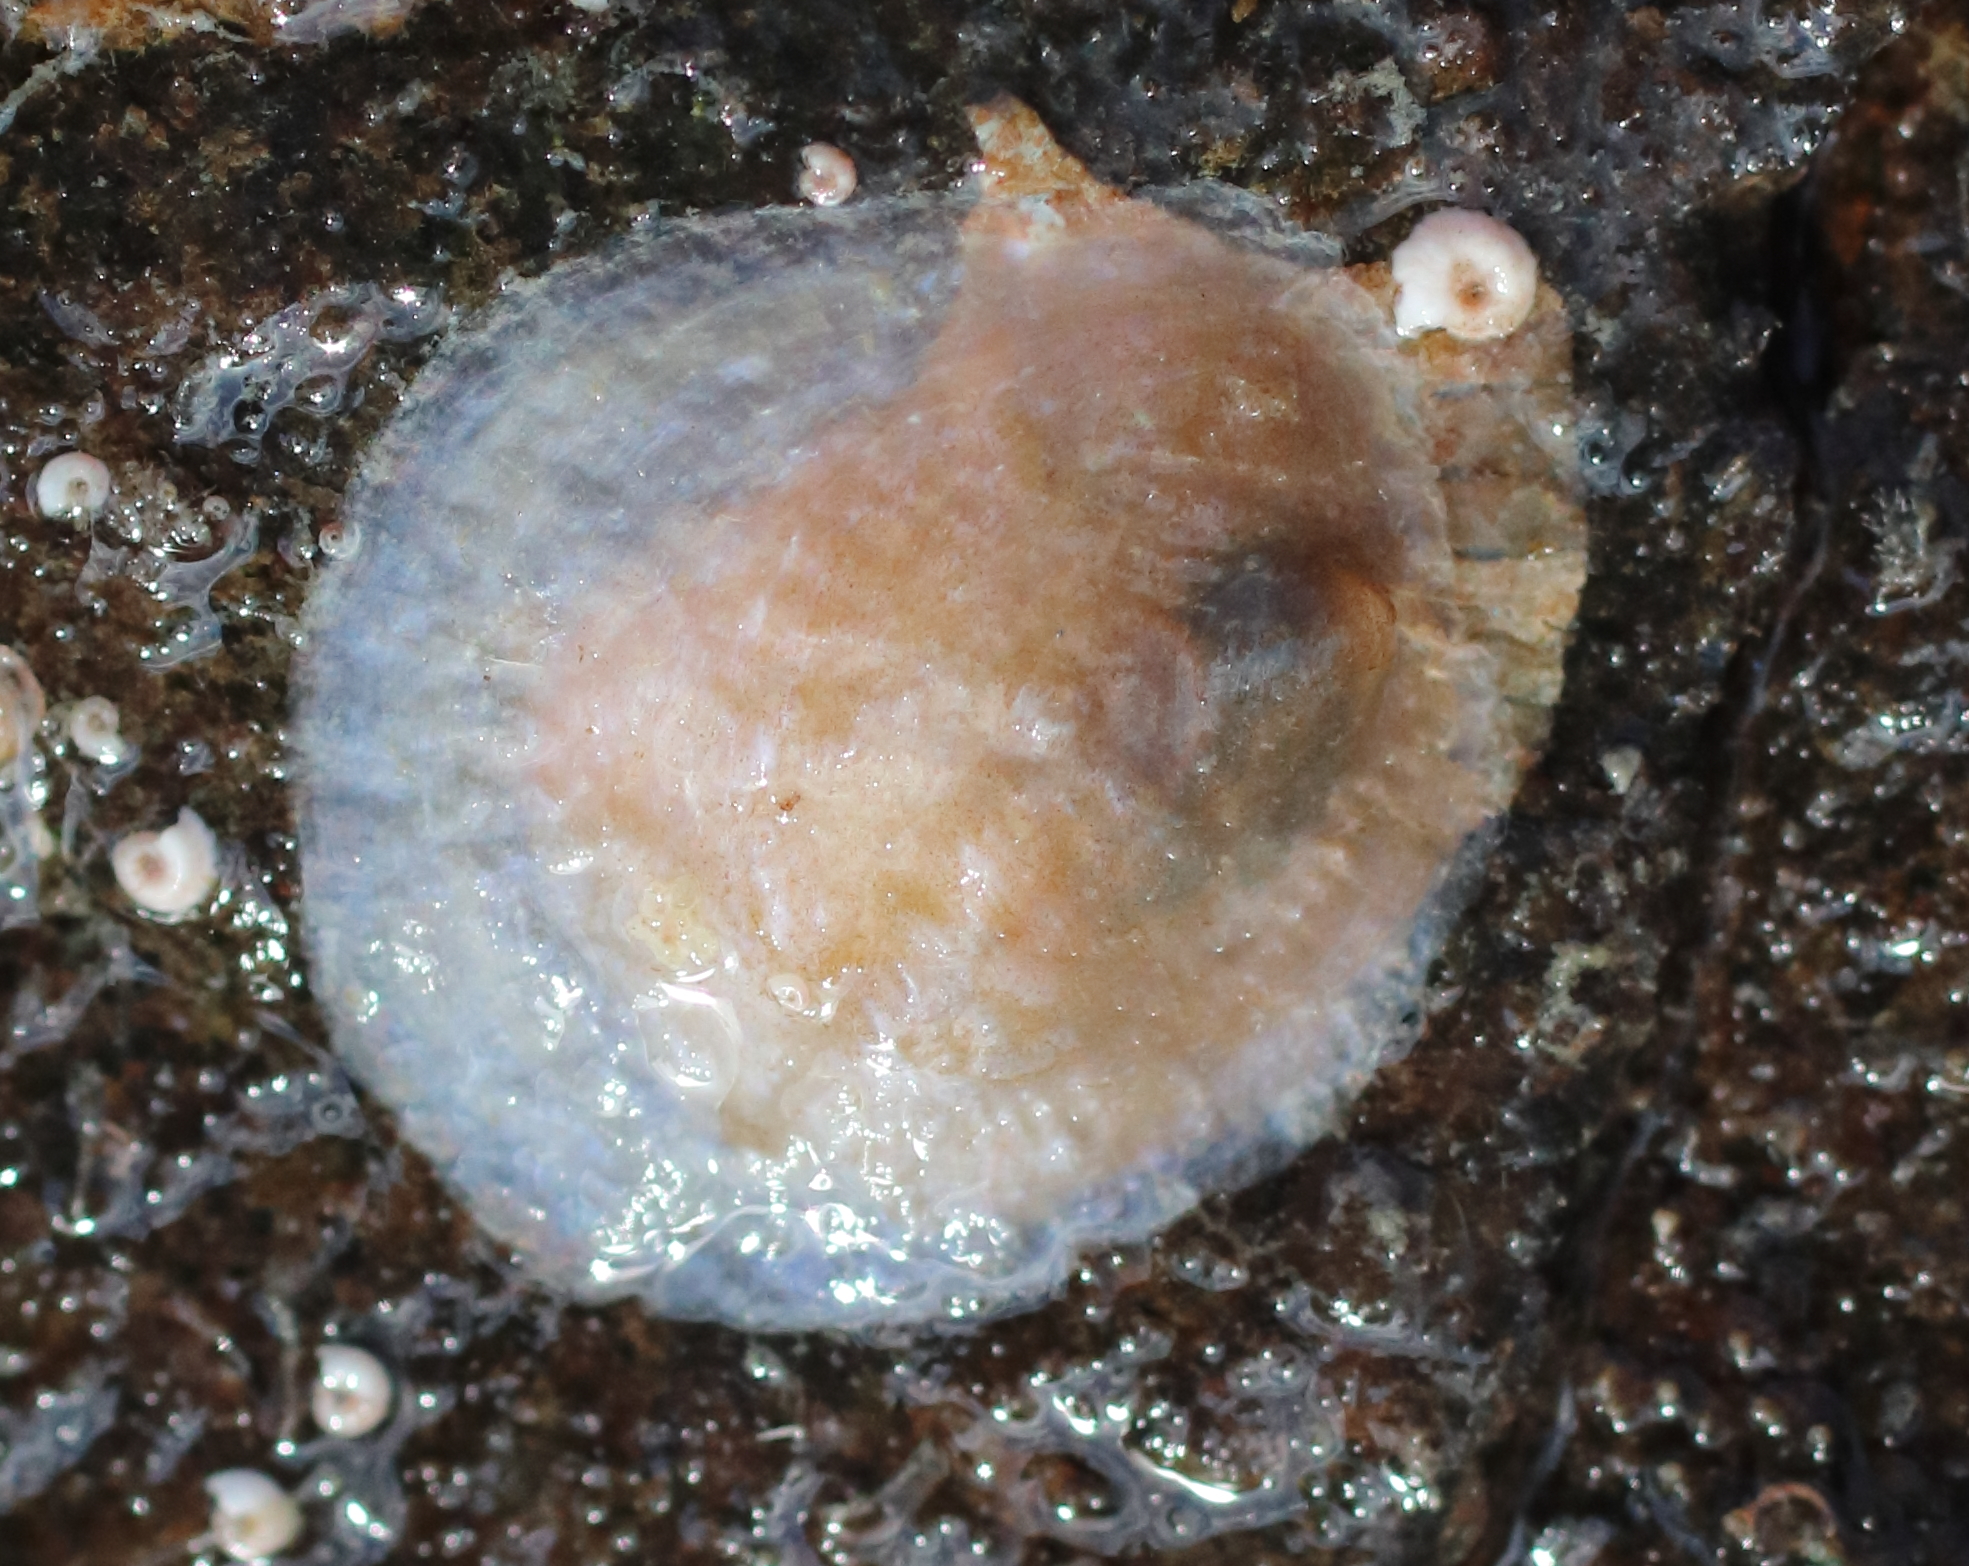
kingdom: Animalia
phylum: Mollusca
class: Bivalvia
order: Pectinida
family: Anomiidae
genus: Pododesmus
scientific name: Pododesmus macrochisma
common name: Alaska jingle
